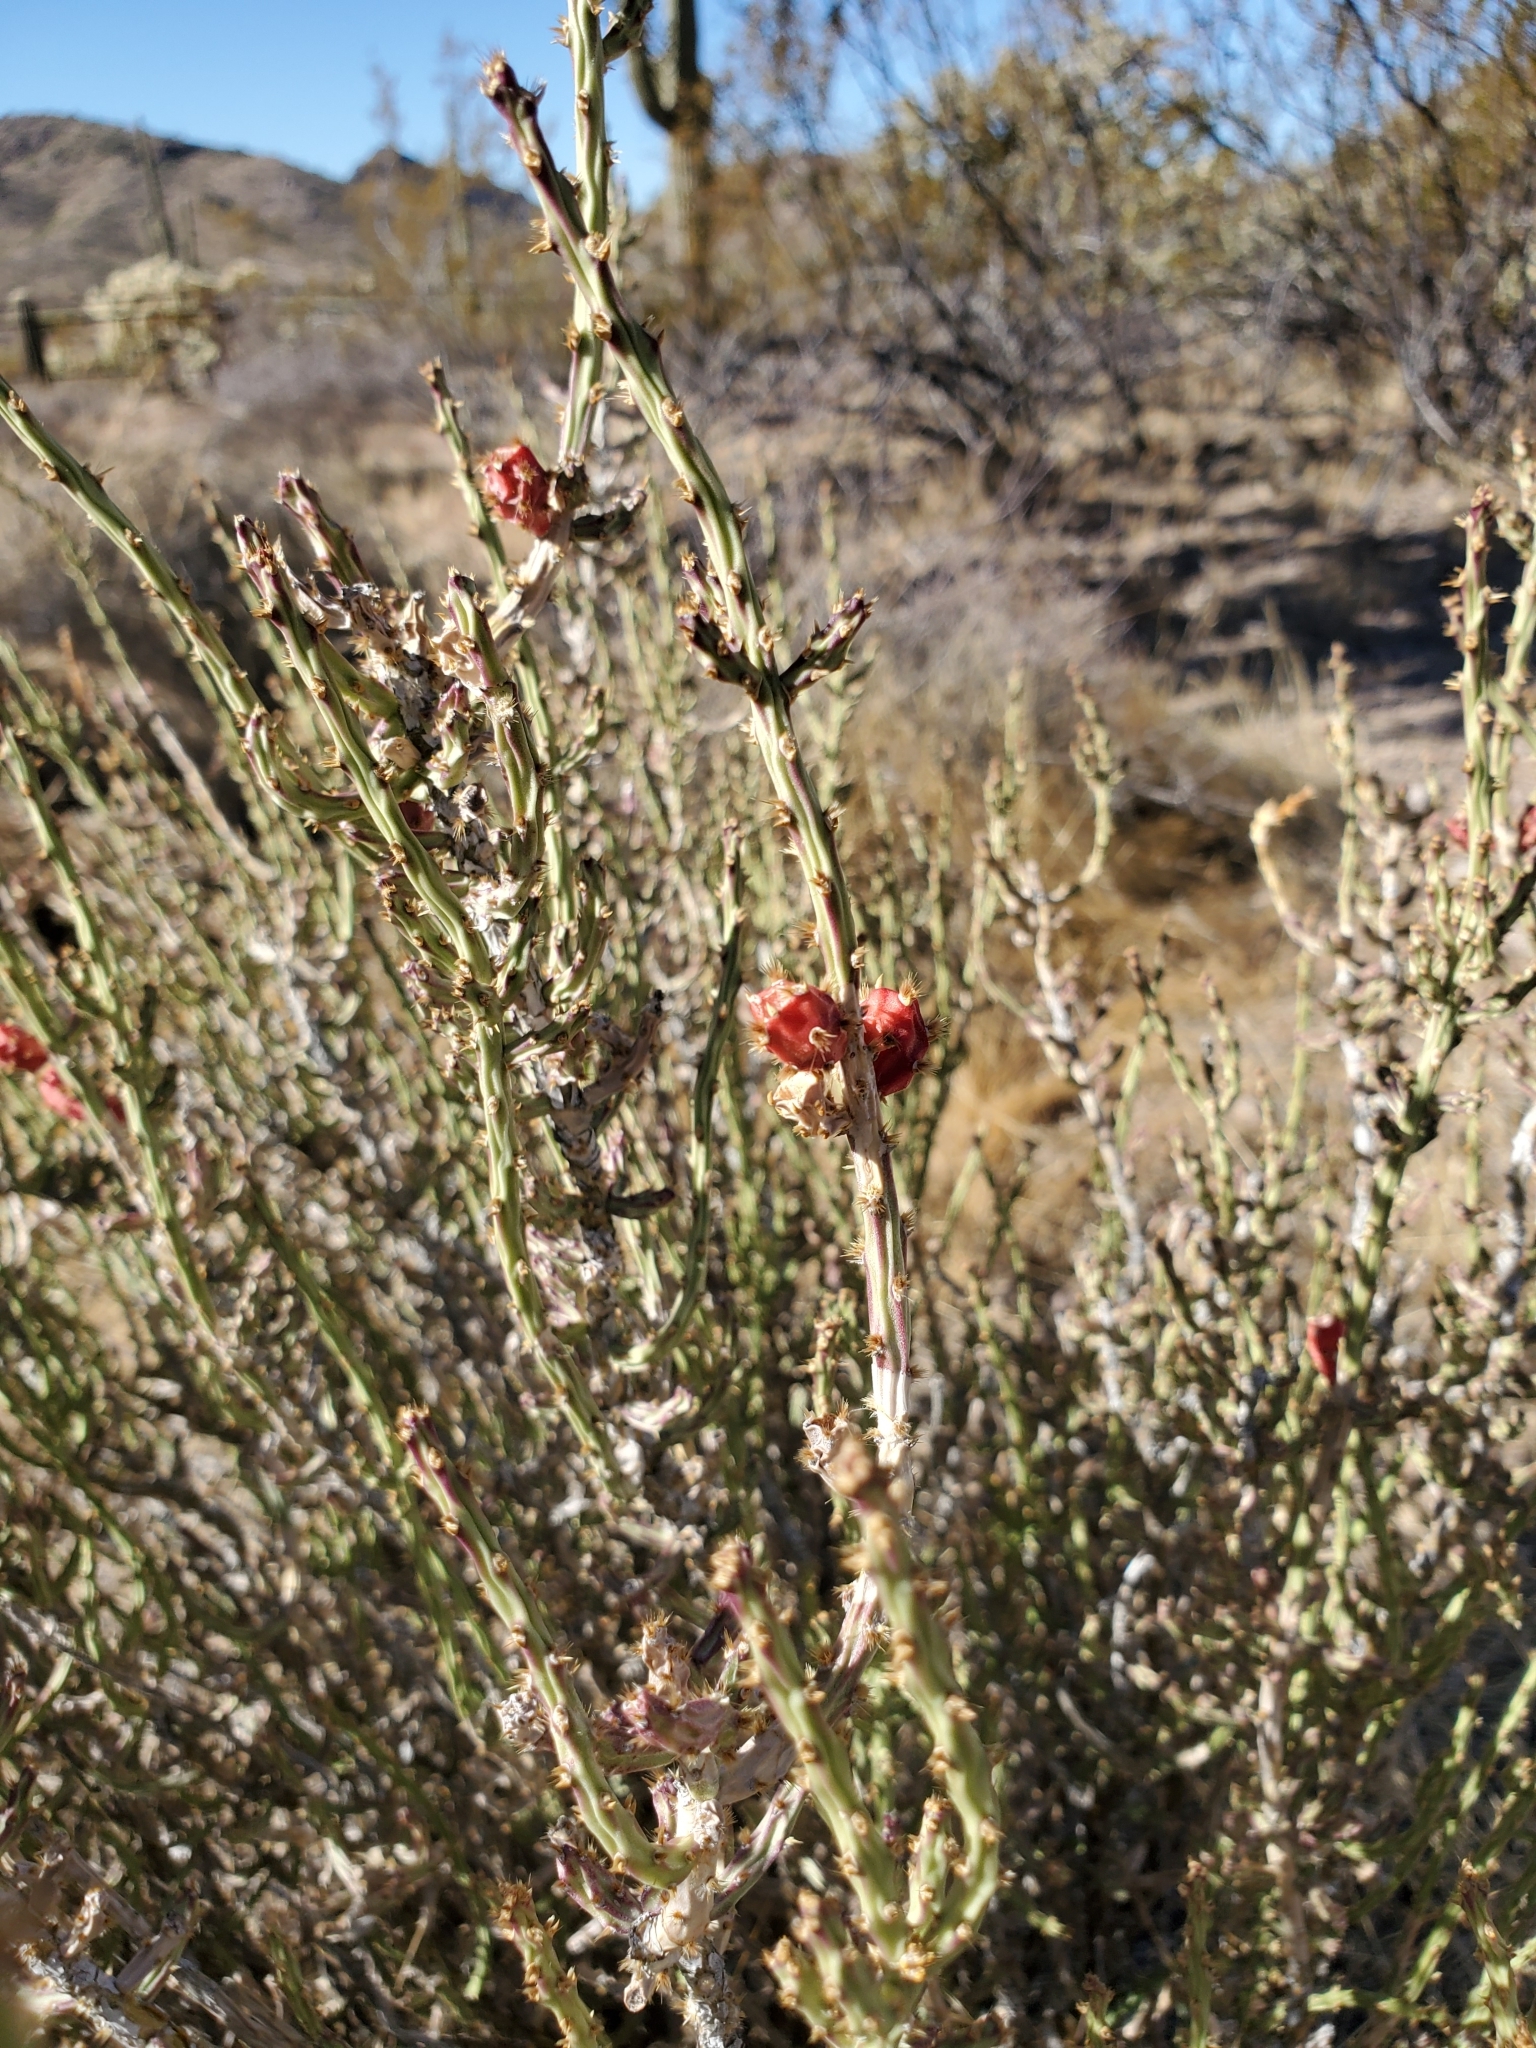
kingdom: Plantae
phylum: Tracheophyta
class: Magnoliopsida
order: Caryophyllales
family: Cactaceae
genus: Cylindropuntia
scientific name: Cylindropuntia leptocaulis
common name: Christmas cactus
